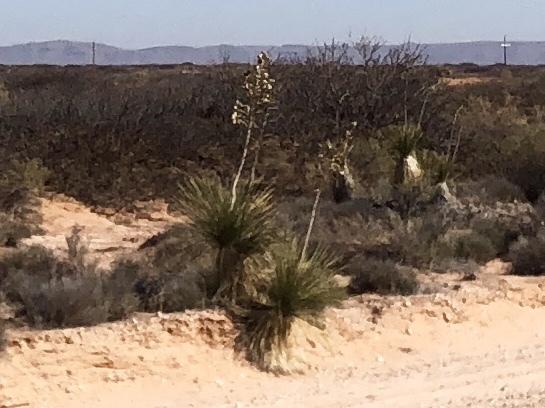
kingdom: Plantae
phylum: Tracheophyta
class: Liliopsida
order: Asparagales
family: Asparagaceae
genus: Yucca
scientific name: Yucca elata
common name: Palmella
